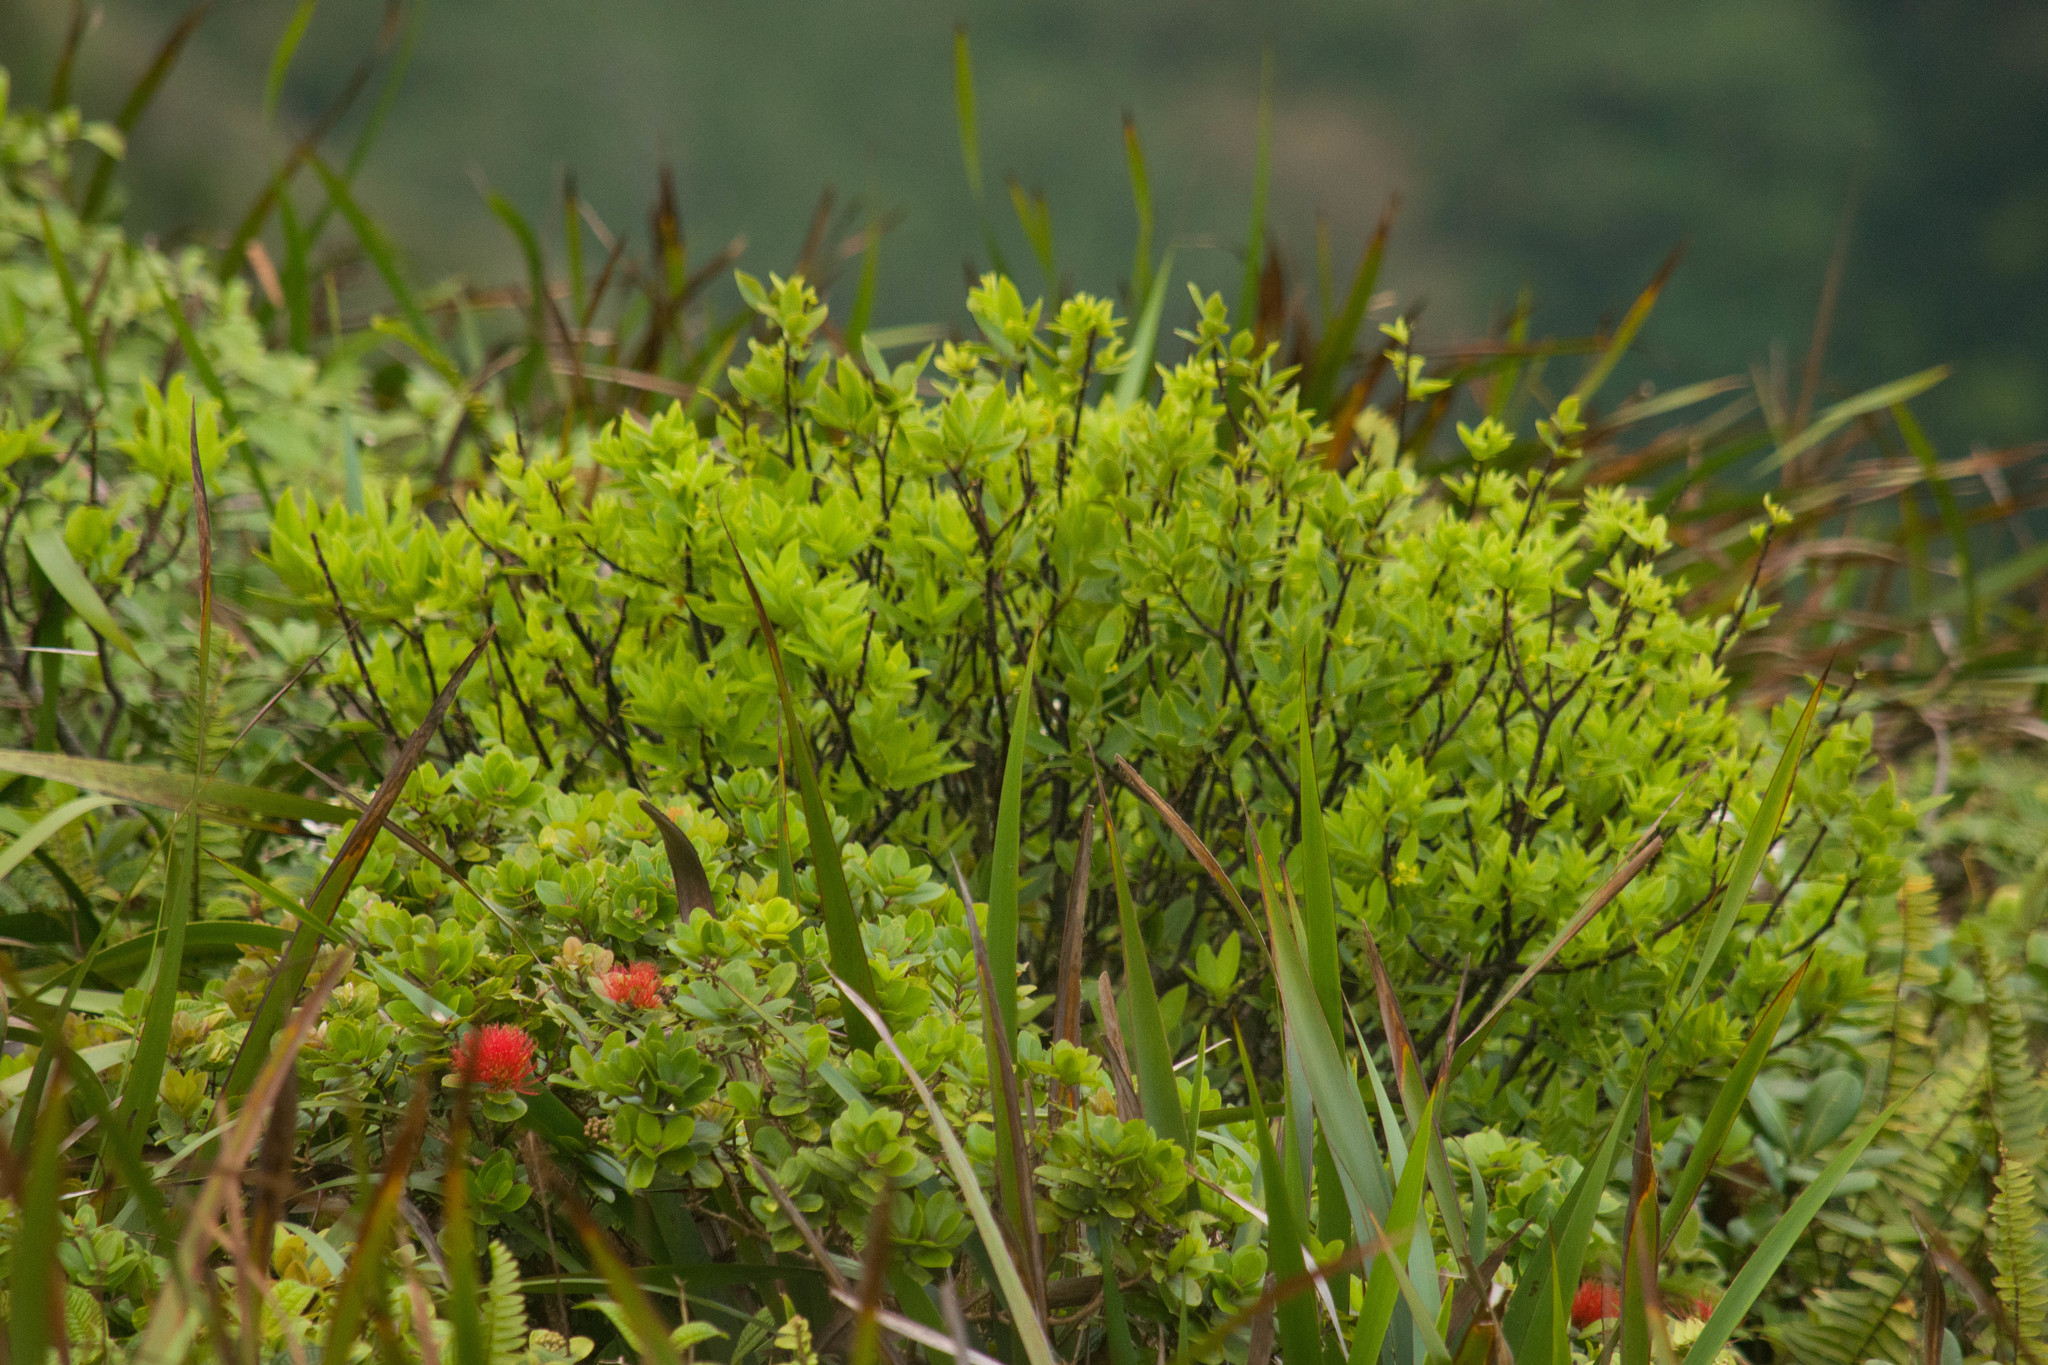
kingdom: Plantae
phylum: Tracheophyta
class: Magnoliopsida
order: Malvales
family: Thymelaeaceae
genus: Wikstroemia
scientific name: Wikstroemia oahuensis
